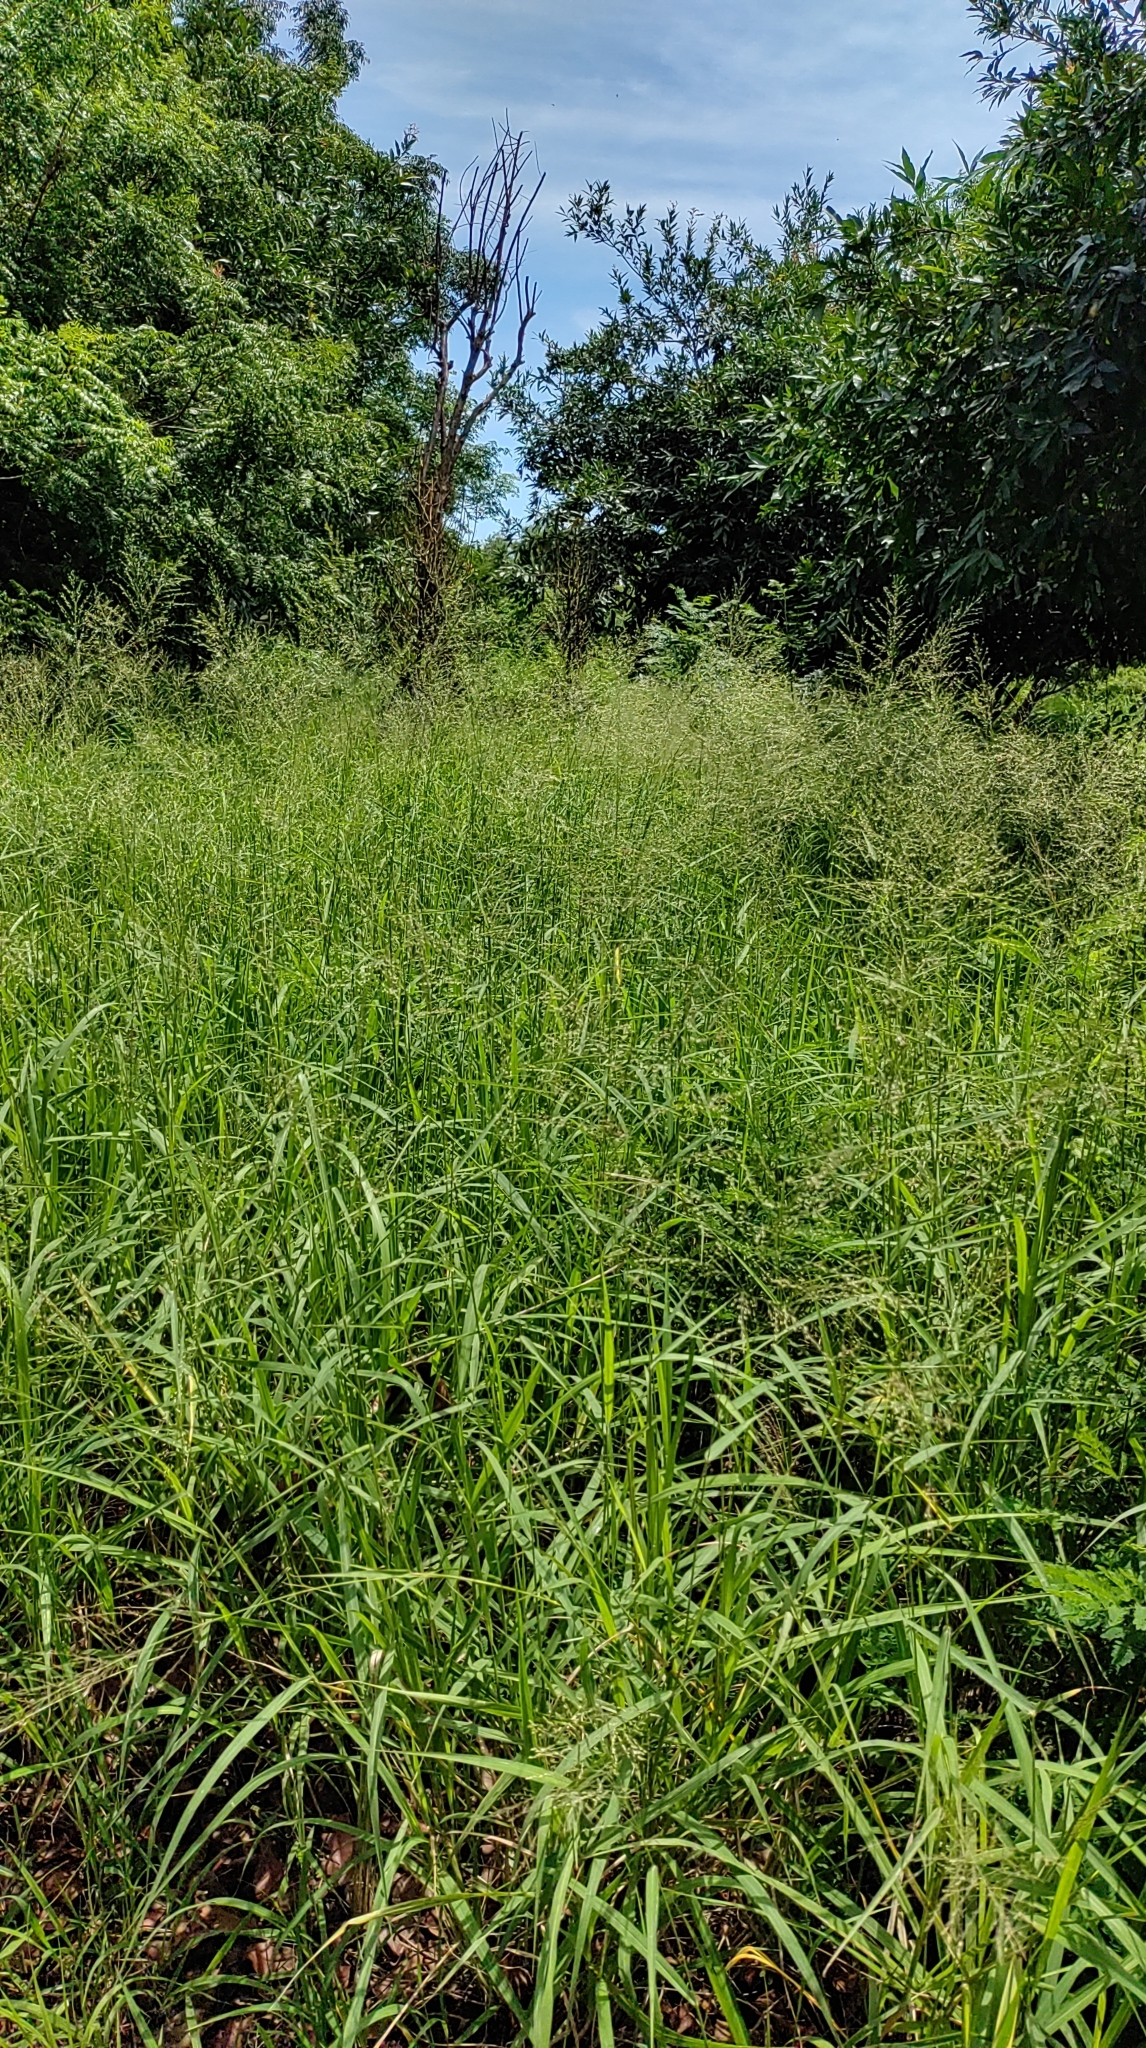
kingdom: Plantae
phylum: Tracheophyta
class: Liliopsida
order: Poales
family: Poaceae
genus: Megathyrsus
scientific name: Megathyrsus maximus
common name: Guineagrass
